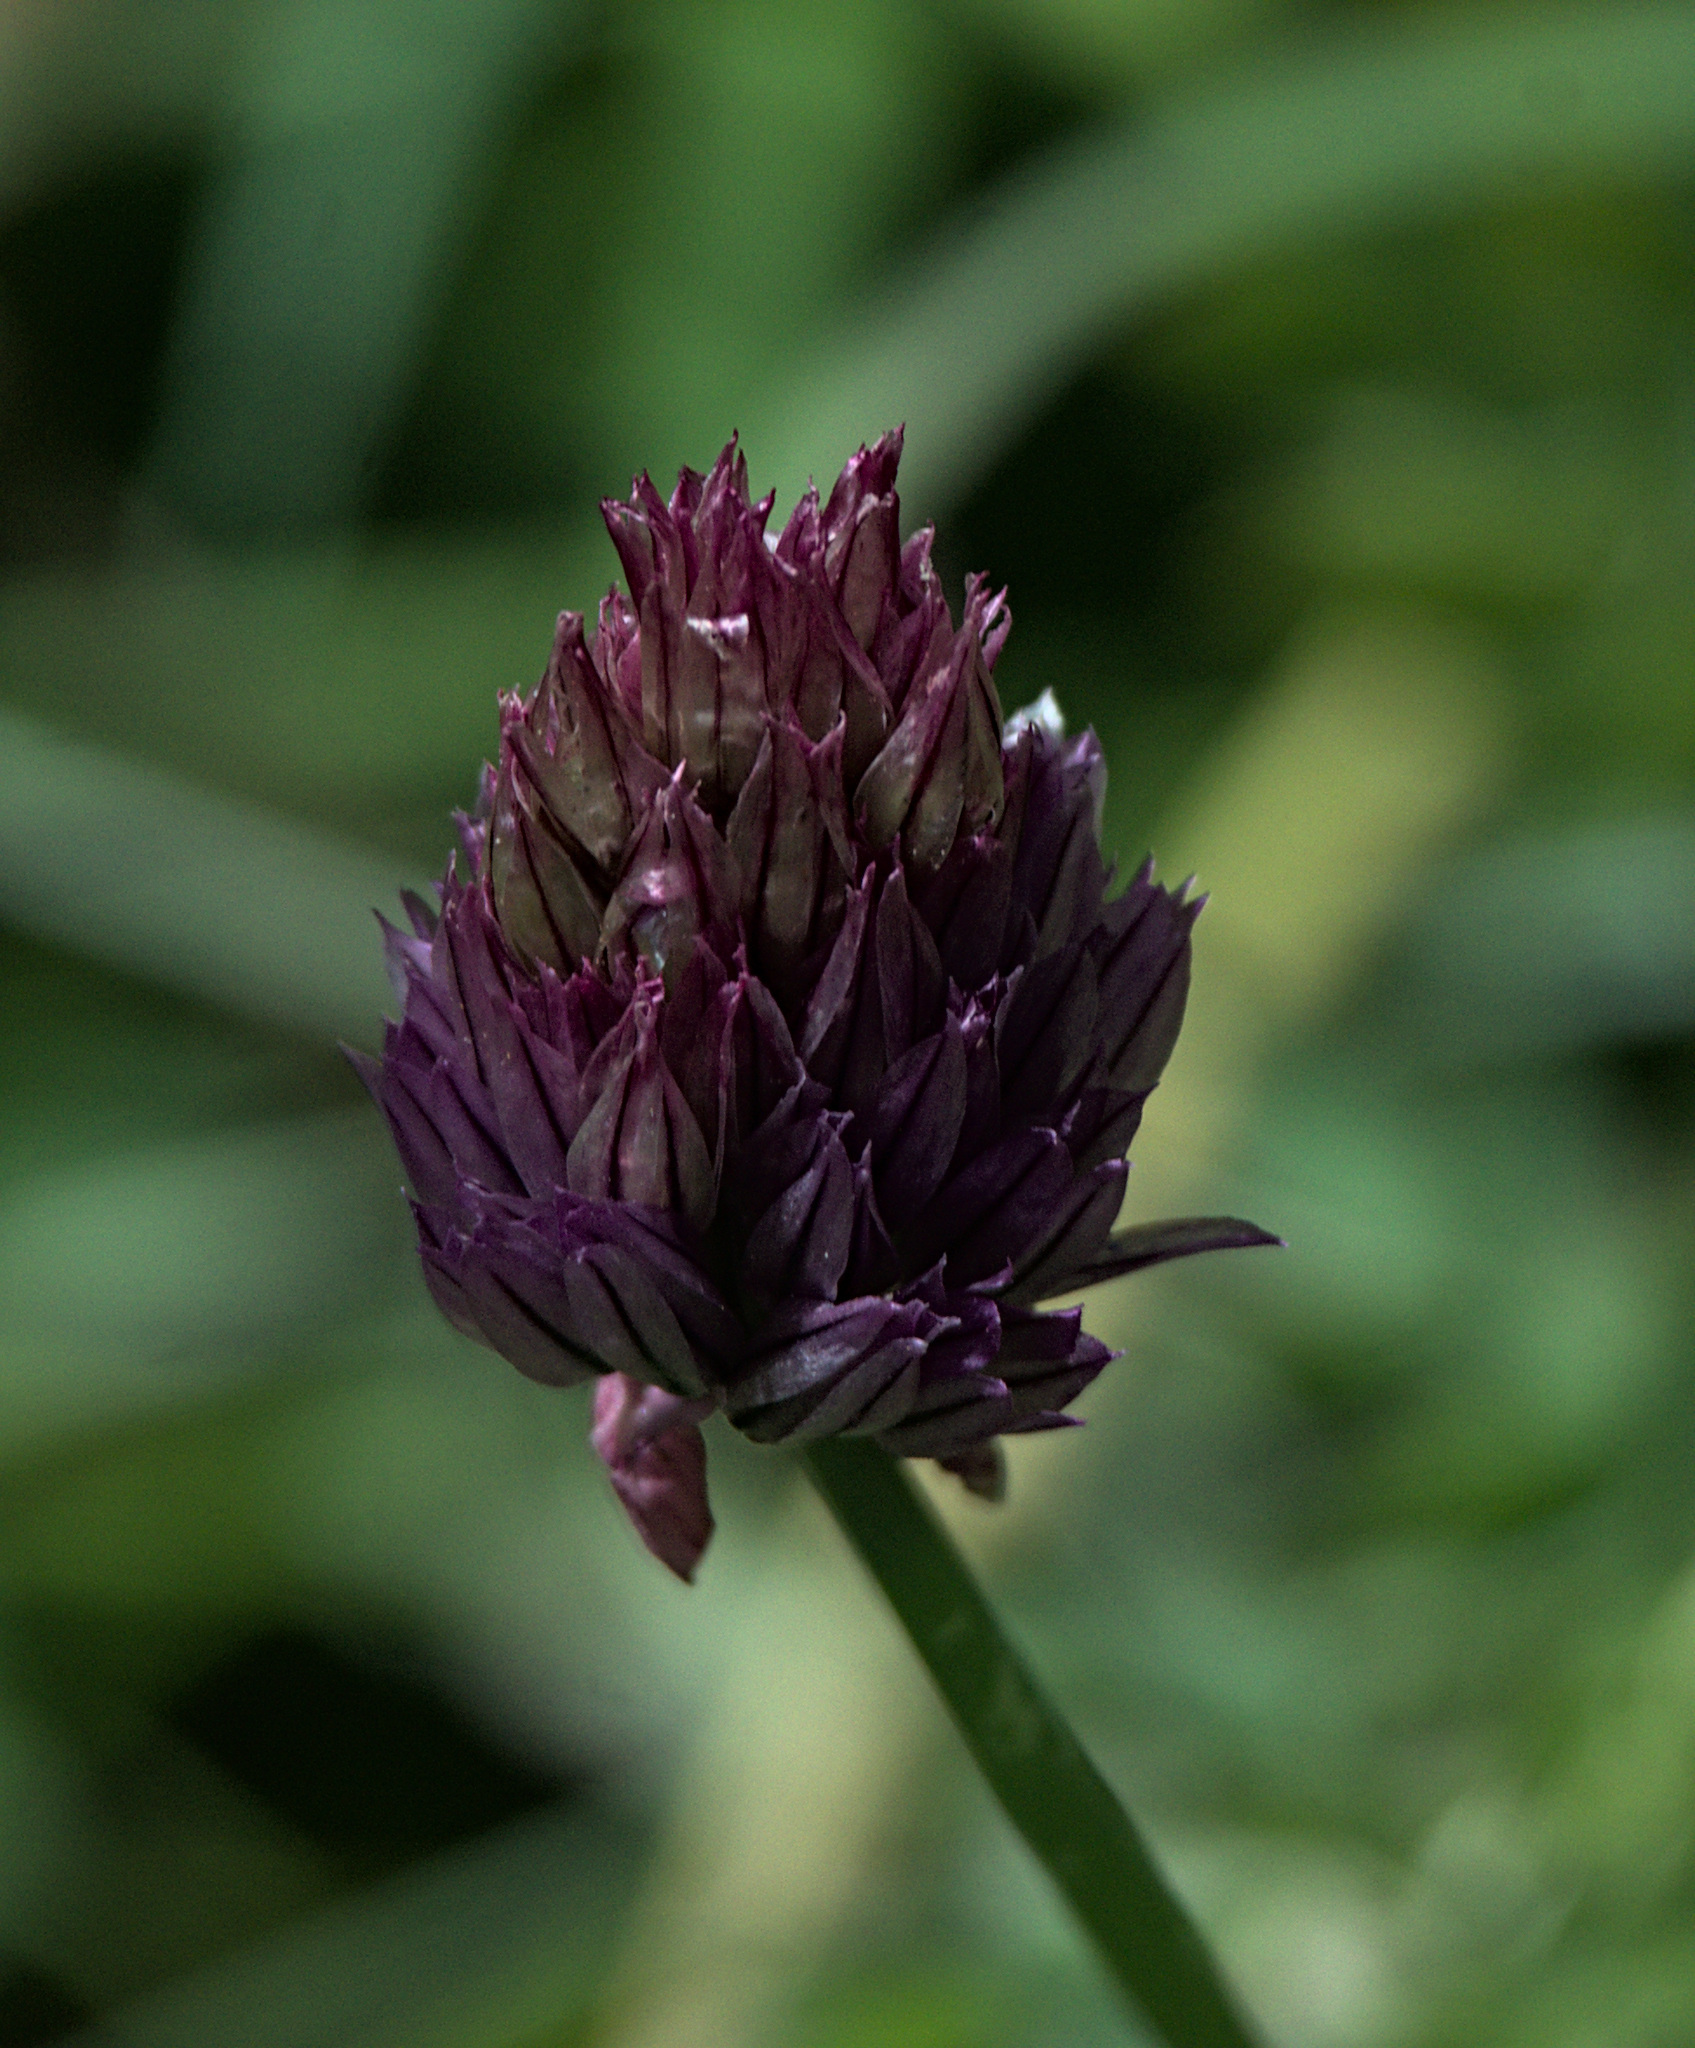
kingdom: Plantae
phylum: Tracheophyta
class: Liliopsida
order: Asparagales
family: Amaryllidaceae
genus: Allium
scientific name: Allium schoenoprasum
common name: Chives
